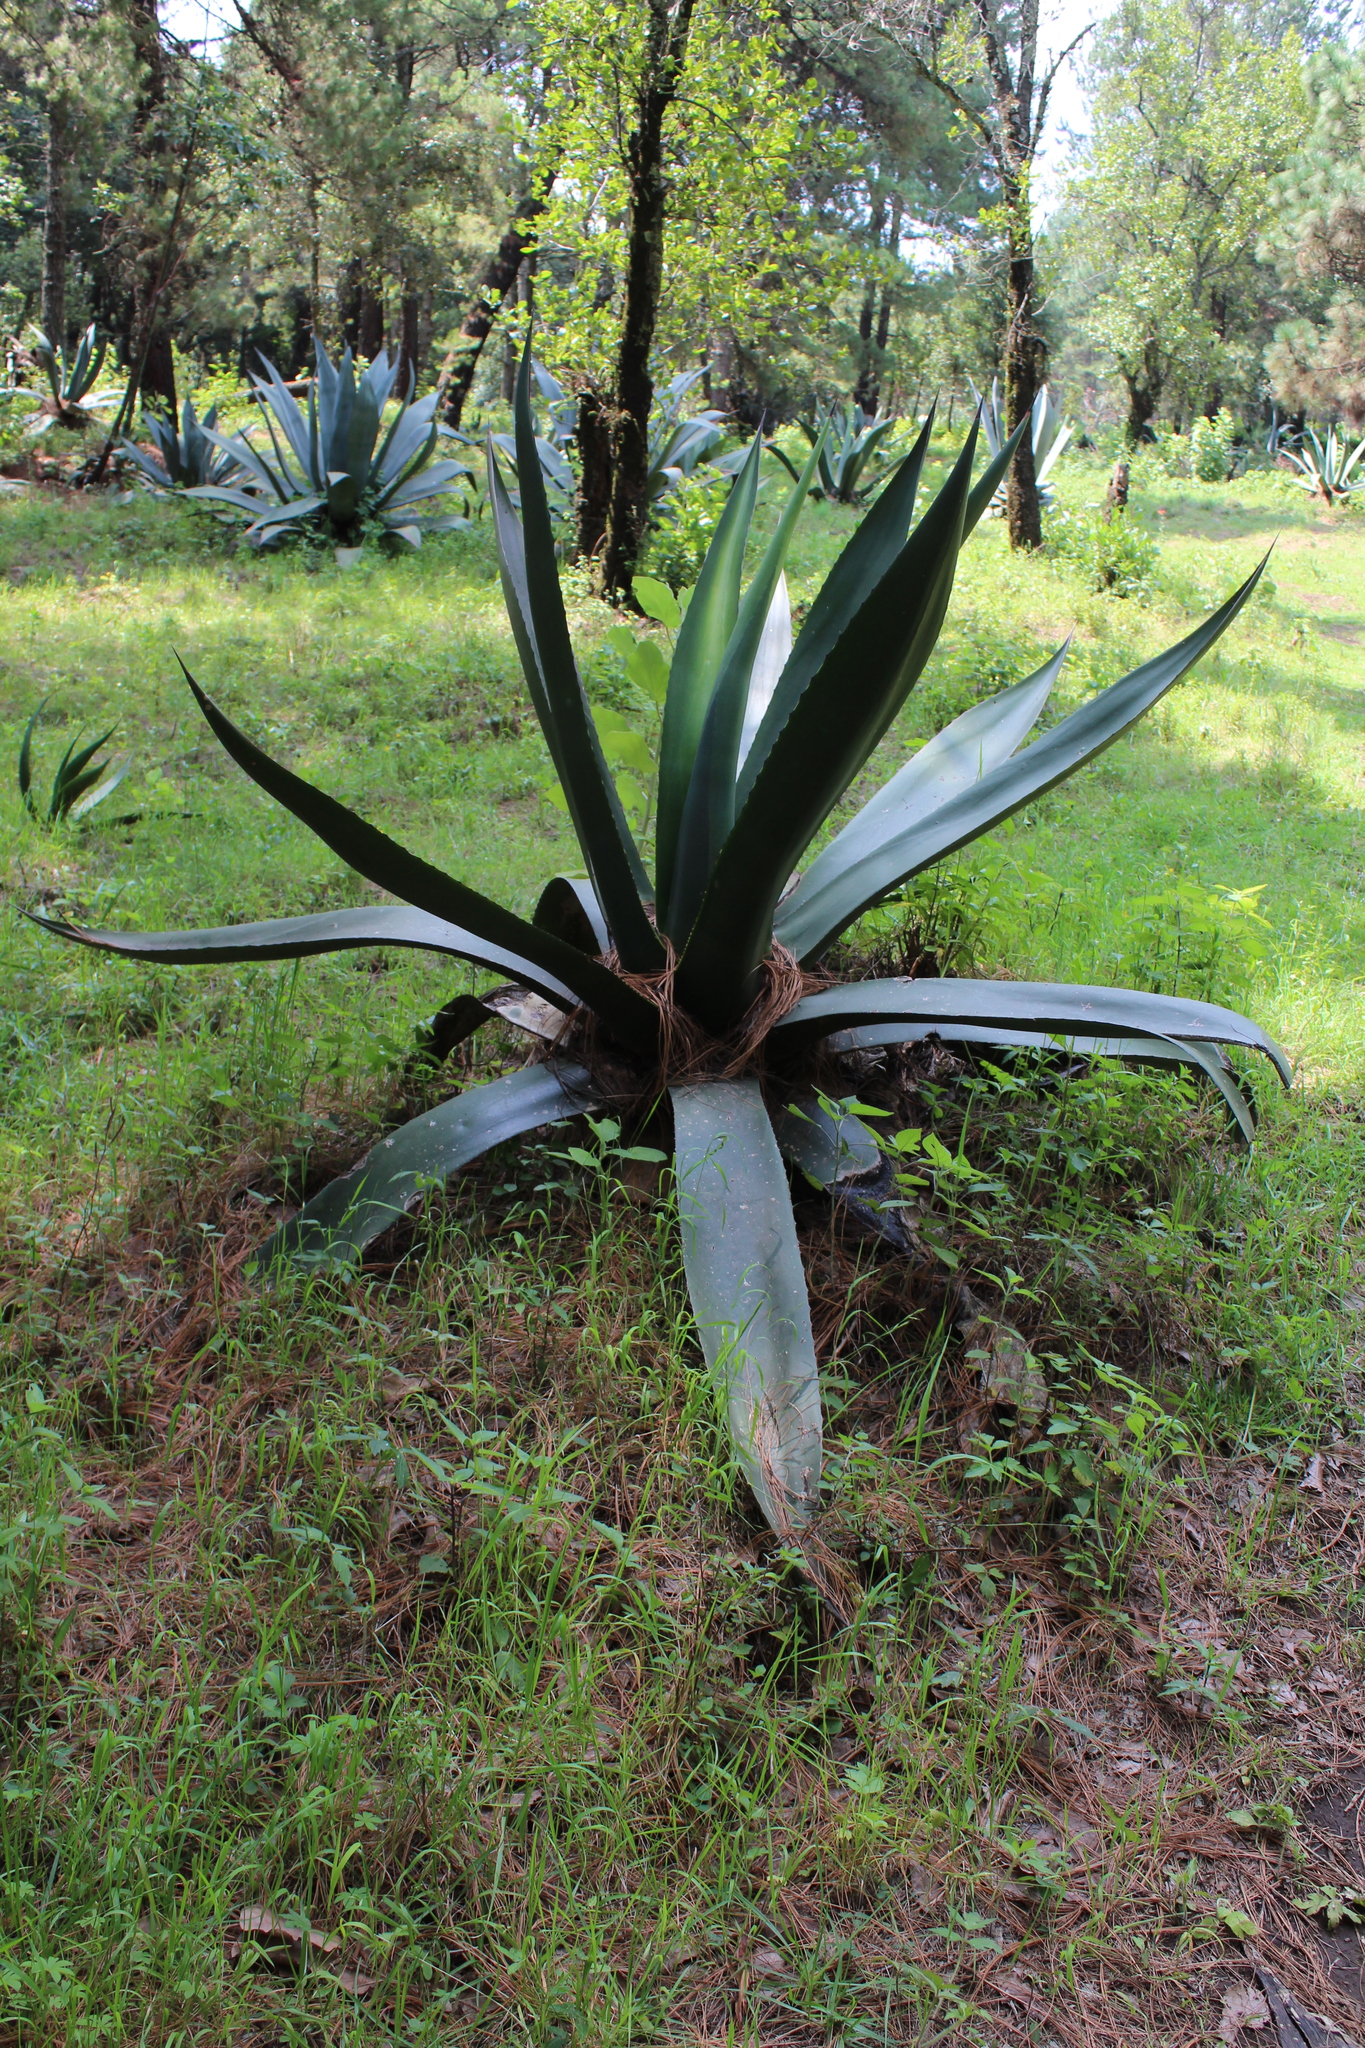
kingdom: Plantae
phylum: Tracheophyta
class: Liliopsida
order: Asparagales
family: Asparagaceae
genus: Agave
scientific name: Agave americana
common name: Centuryplant
